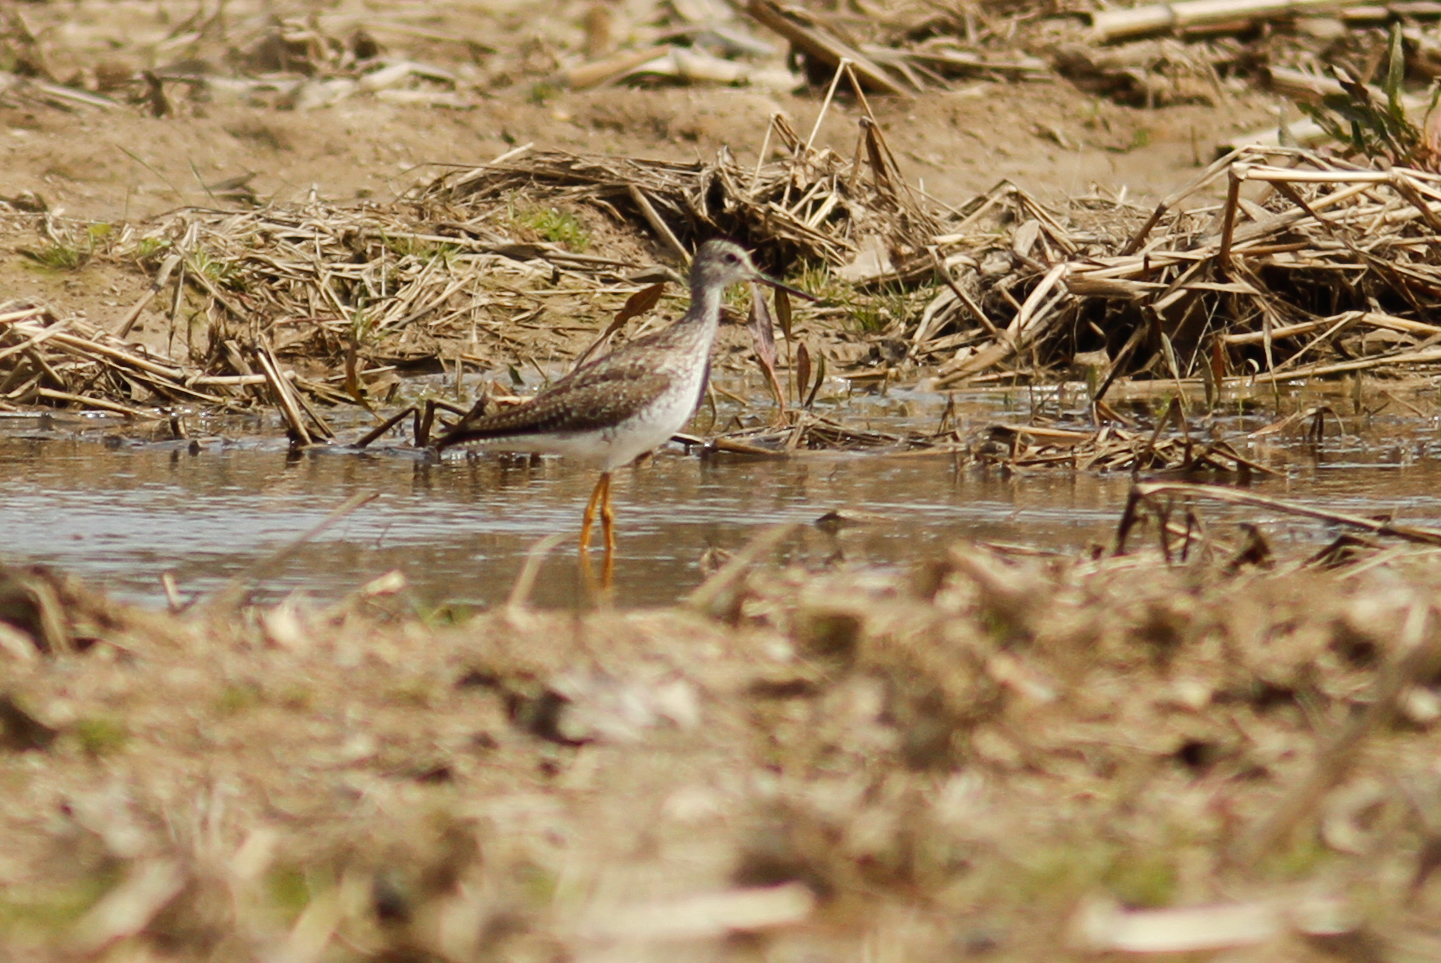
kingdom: Animalia
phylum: Chordata
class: Aves
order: Charadriiformes
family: Scolopacidae
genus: Tringa
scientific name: Tringa flavipes
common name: Lesser yellowlegs
